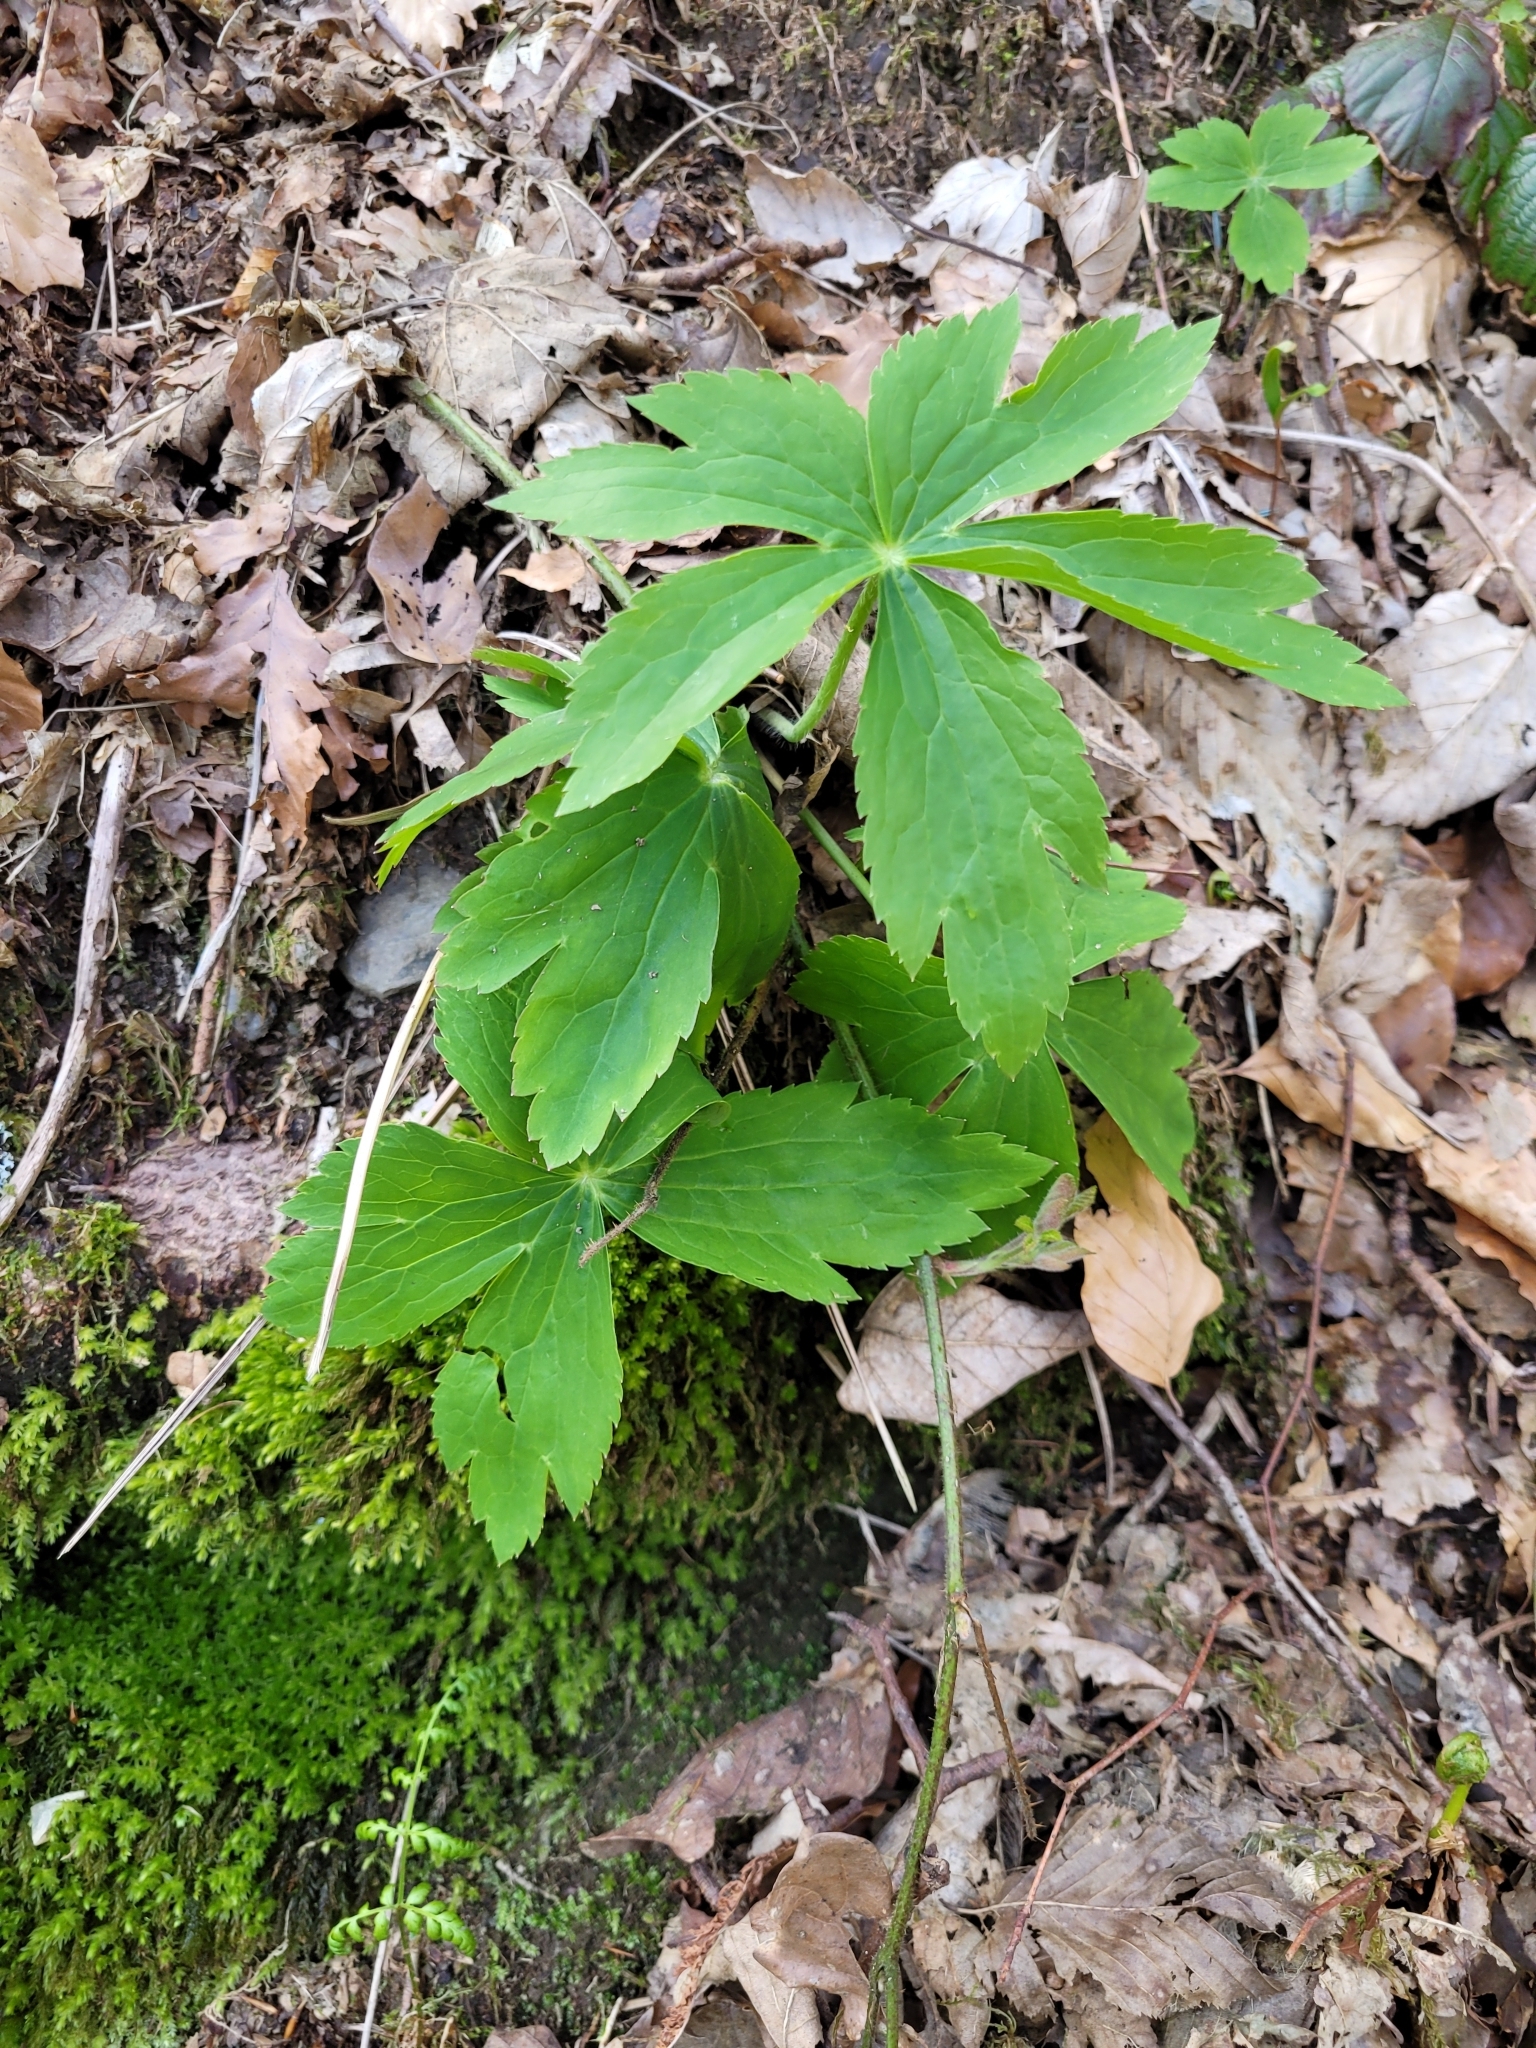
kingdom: Plantae
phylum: Tracheophyta
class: Magnoliopsida
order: Ranunculales
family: Ranunculaceae
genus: Ranunculus
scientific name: Ranunculus platanifolius
